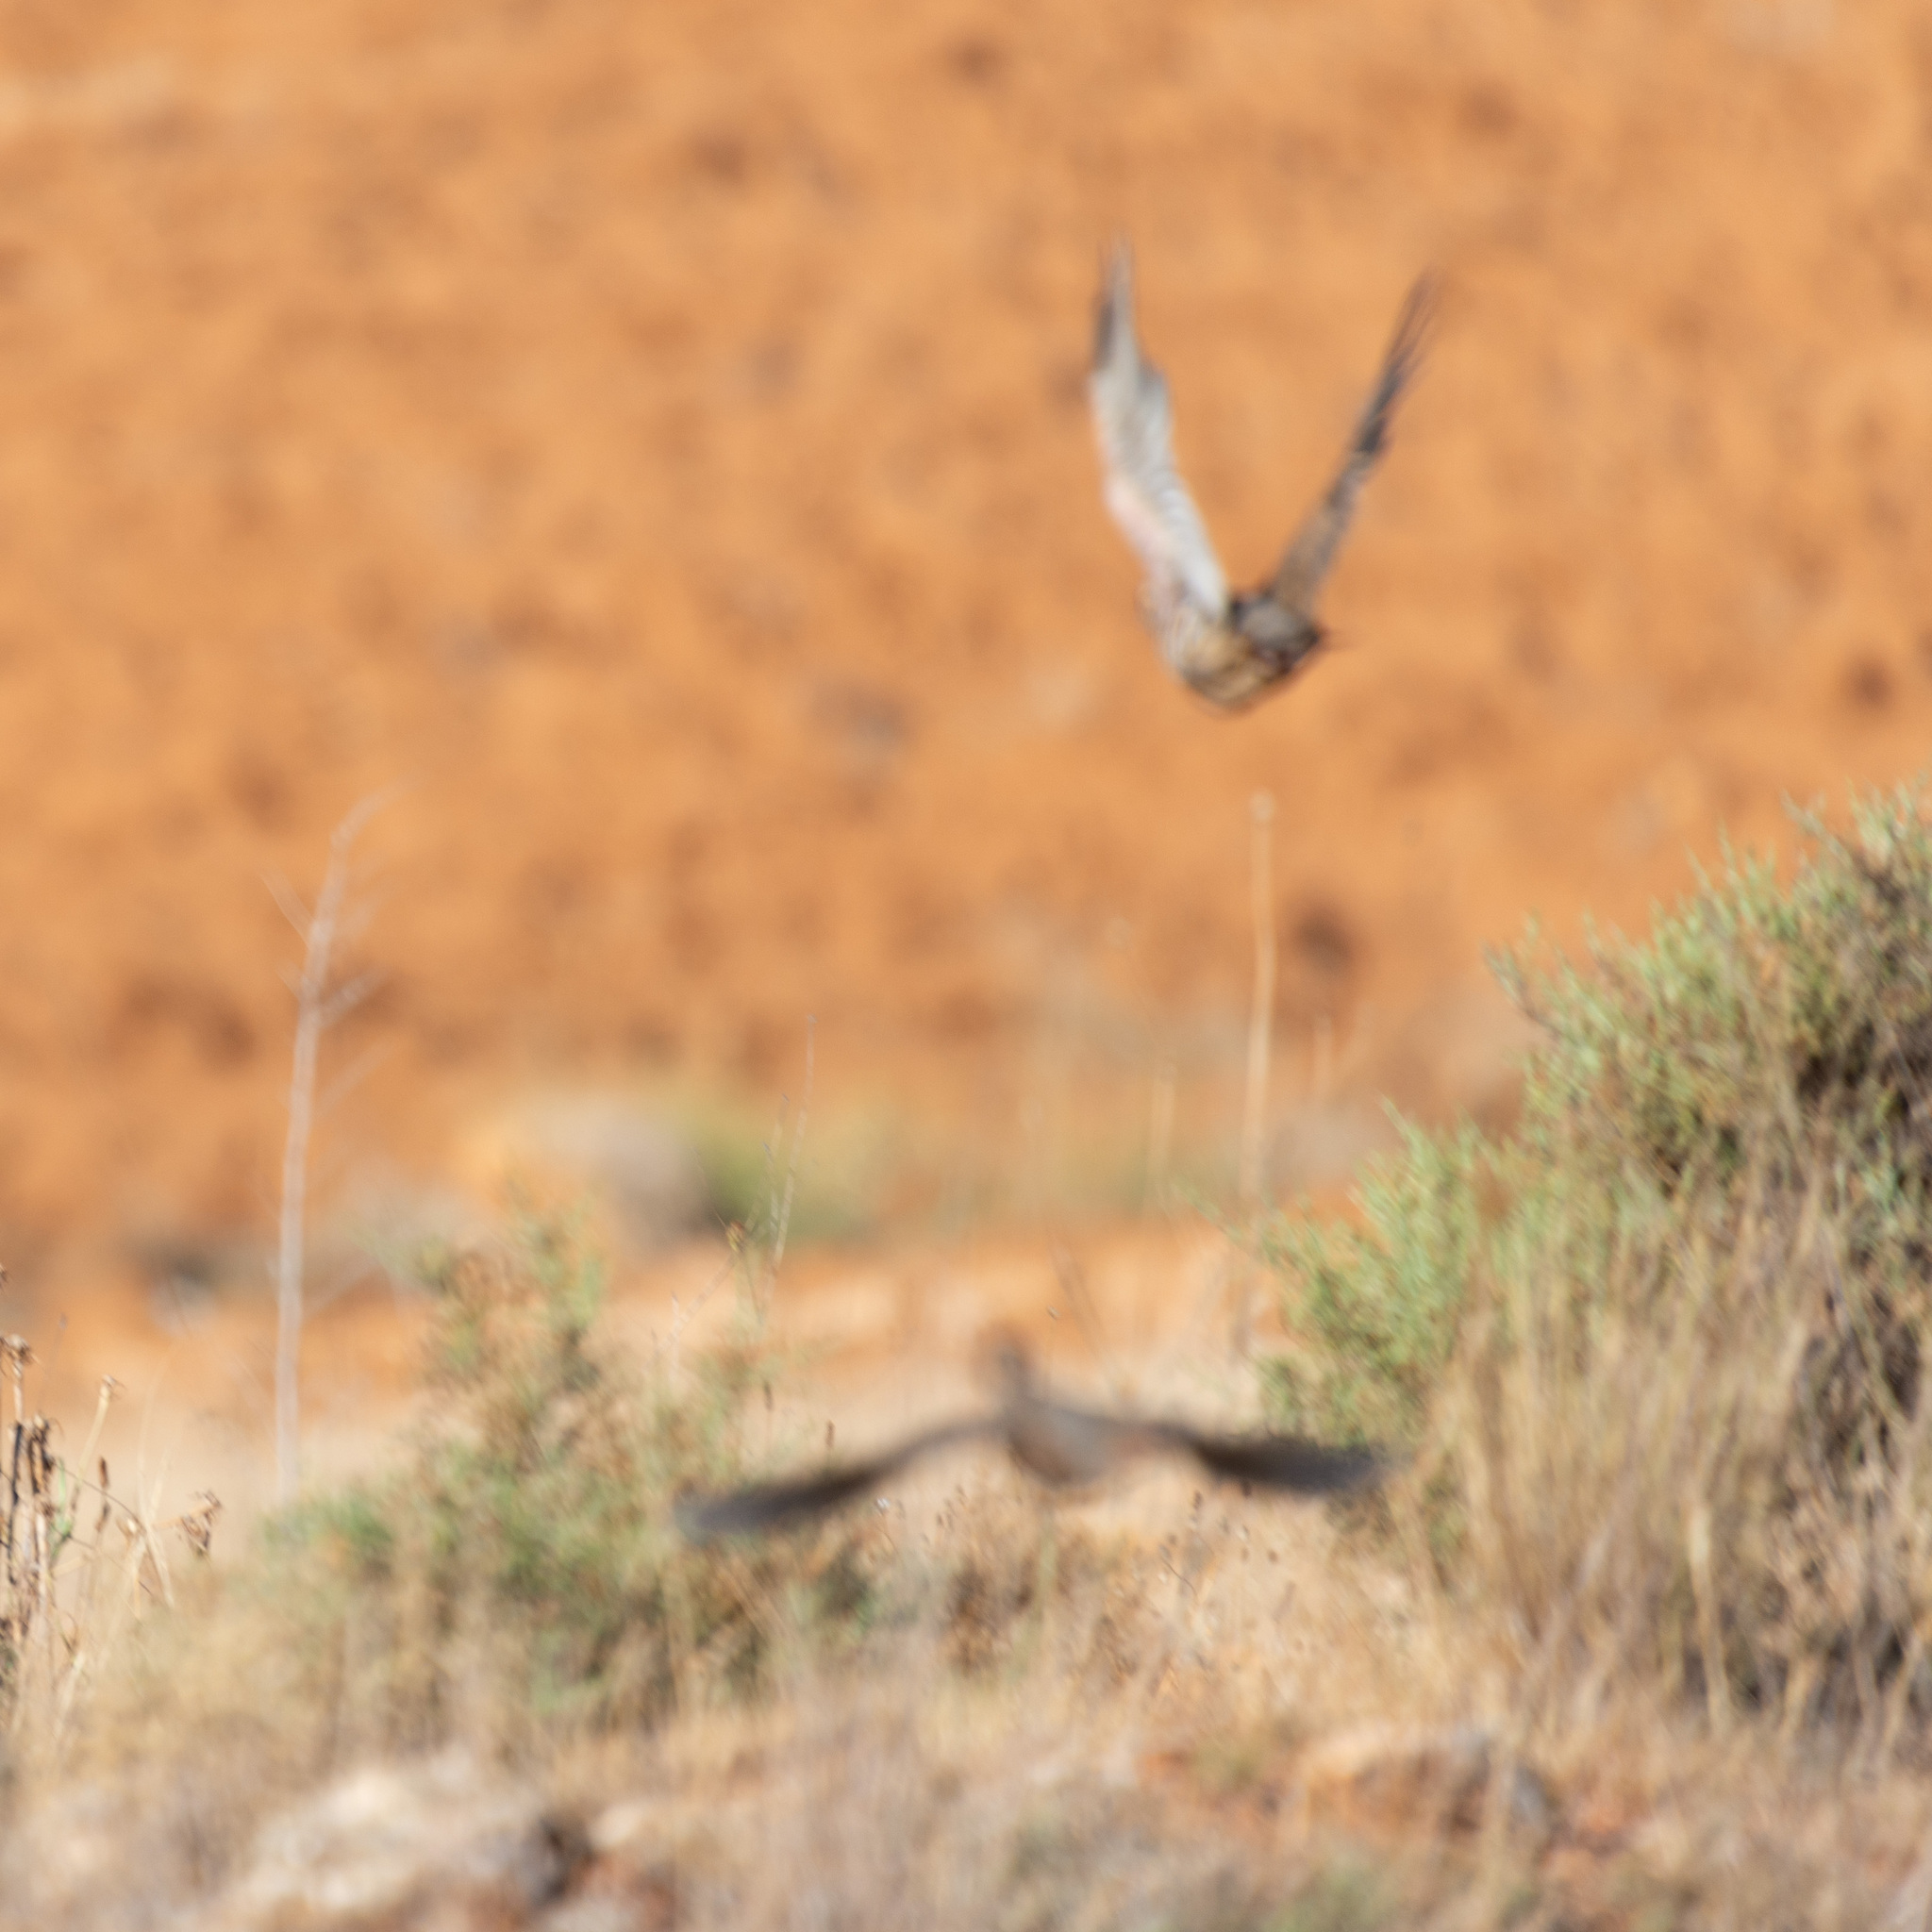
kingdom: Animalia
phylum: Chordata
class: Aves
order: Galliformes
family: Phasianidae
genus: Alectoris
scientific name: Alectoris rufa
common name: Red-legged partridge
